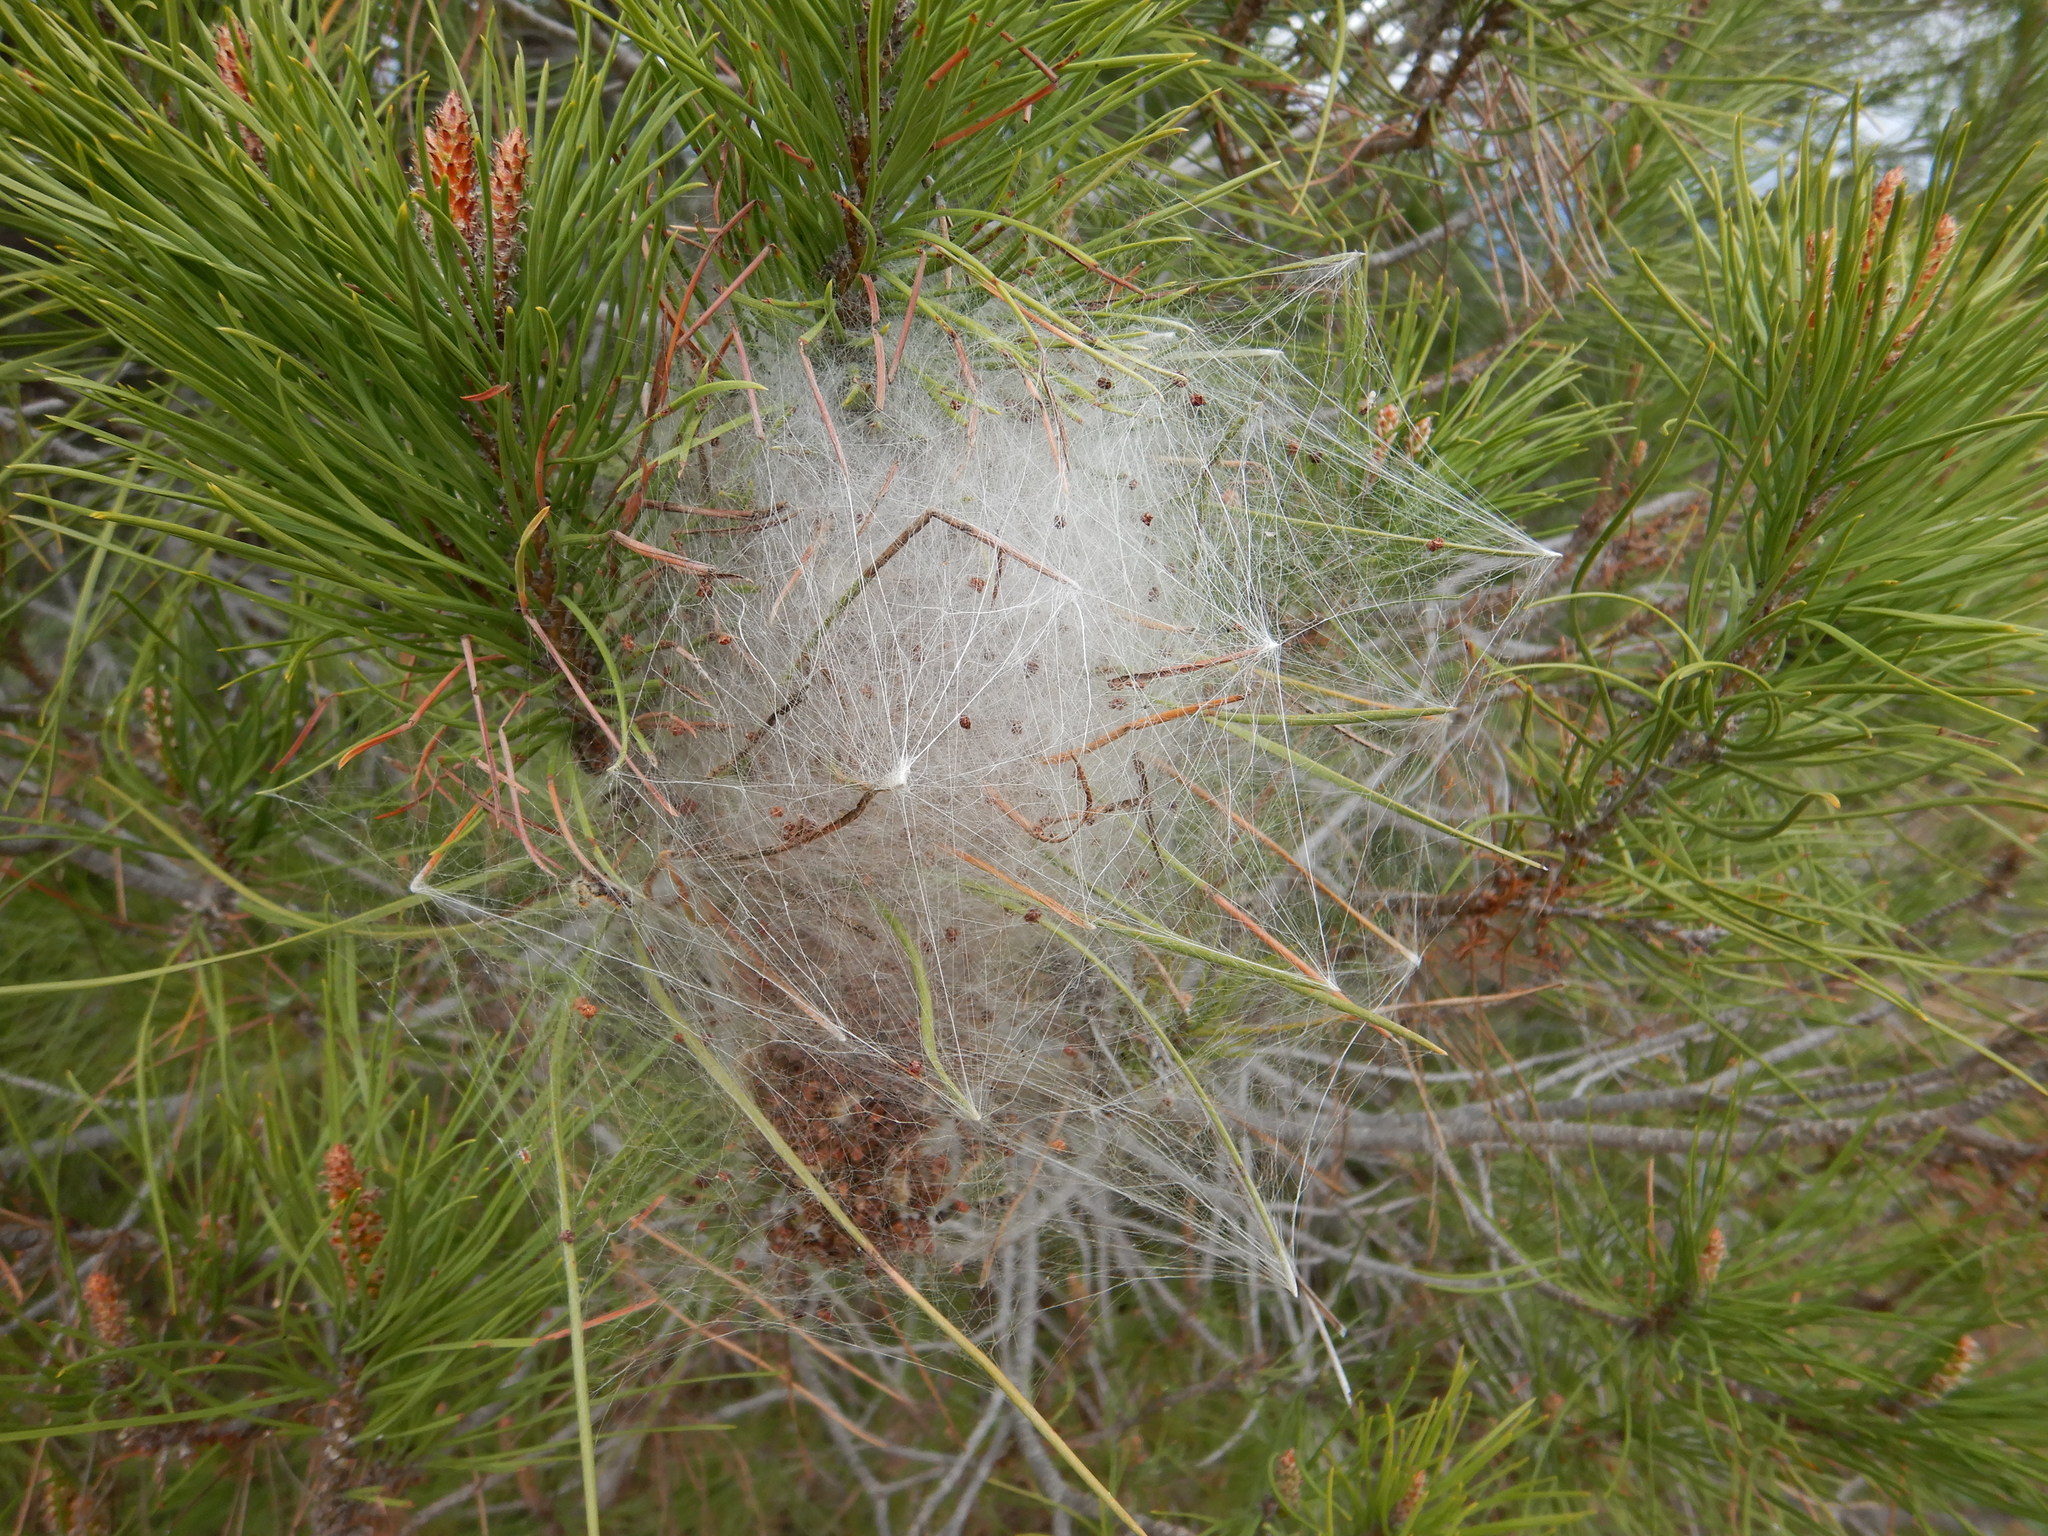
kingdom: Animalia
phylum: Arthropoda
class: Insecta
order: Lepidoptera
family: Notodontidae
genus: Thaumetopoea
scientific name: Thaumetopoea pityocampa
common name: Pine processionary
